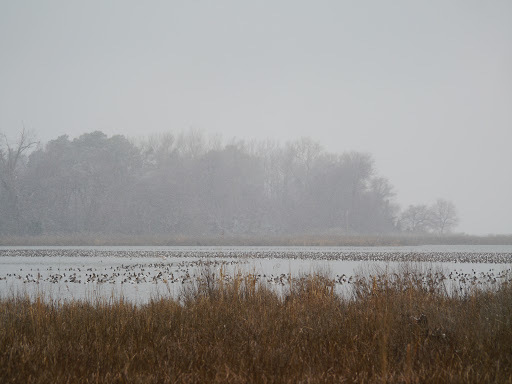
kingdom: Animalia
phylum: Chordata
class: Aves
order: Anseriformes
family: Anatidae
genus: Aythya
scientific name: Aythya valisineria
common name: Canvasback
